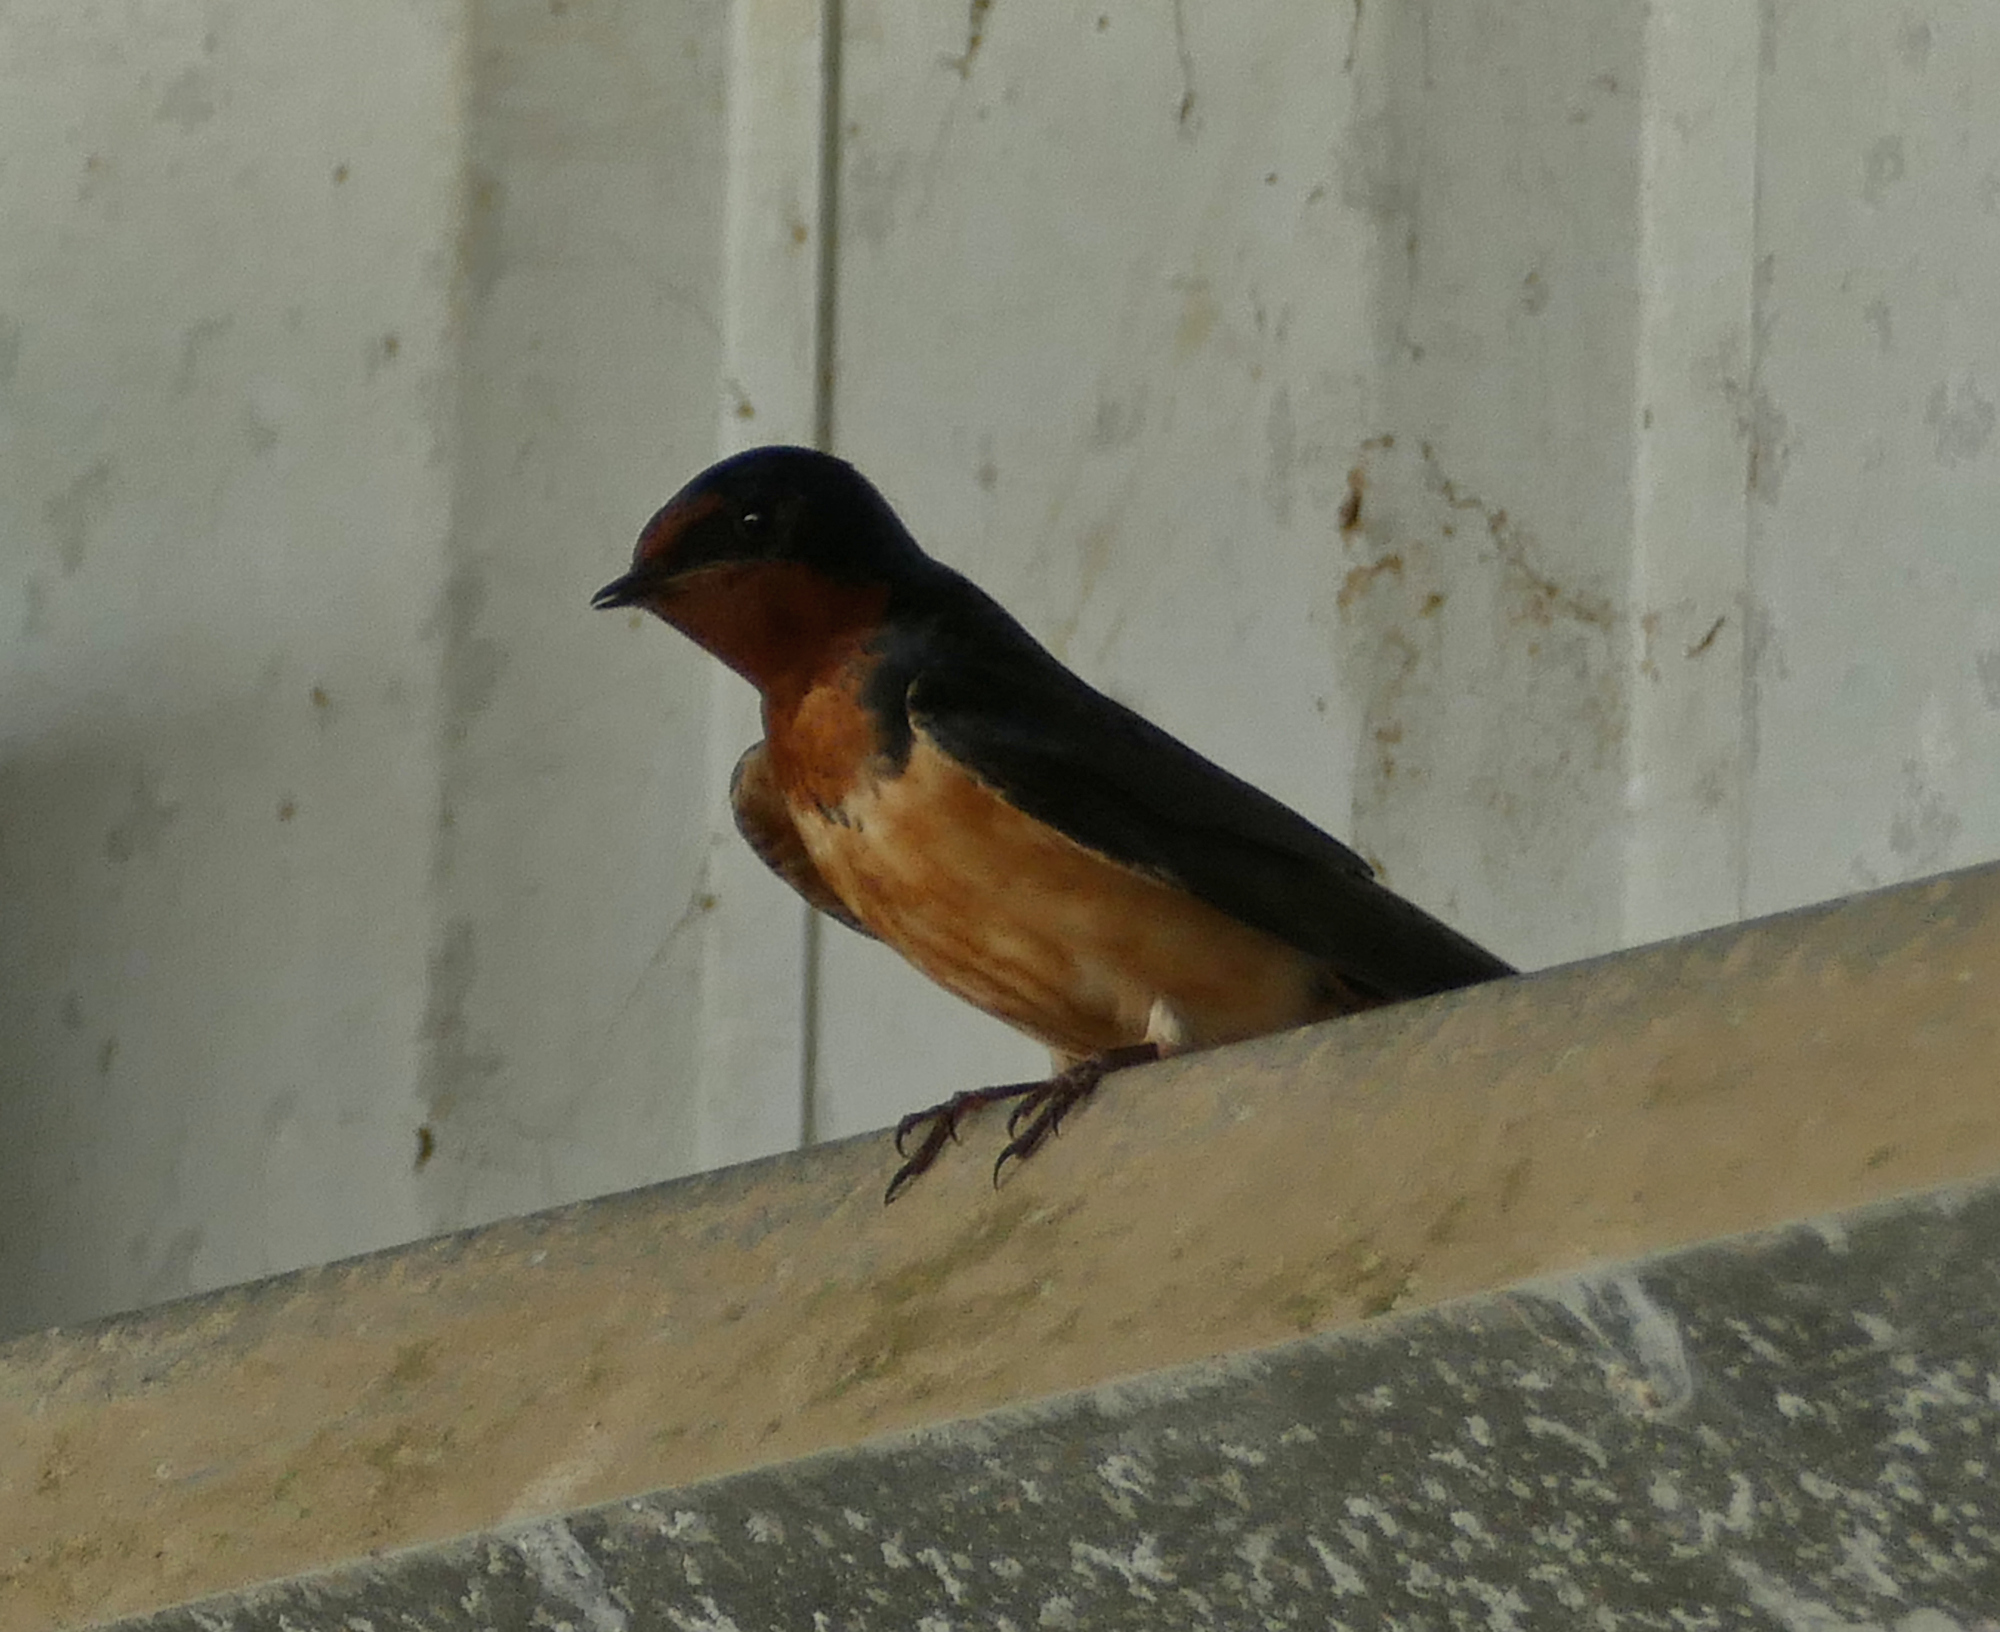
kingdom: Animalia
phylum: Chordata
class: Aves
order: Passeriformes
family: Hirundinidae
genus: Hirundo
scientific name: Hirundo rustica
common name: Barn swallow
